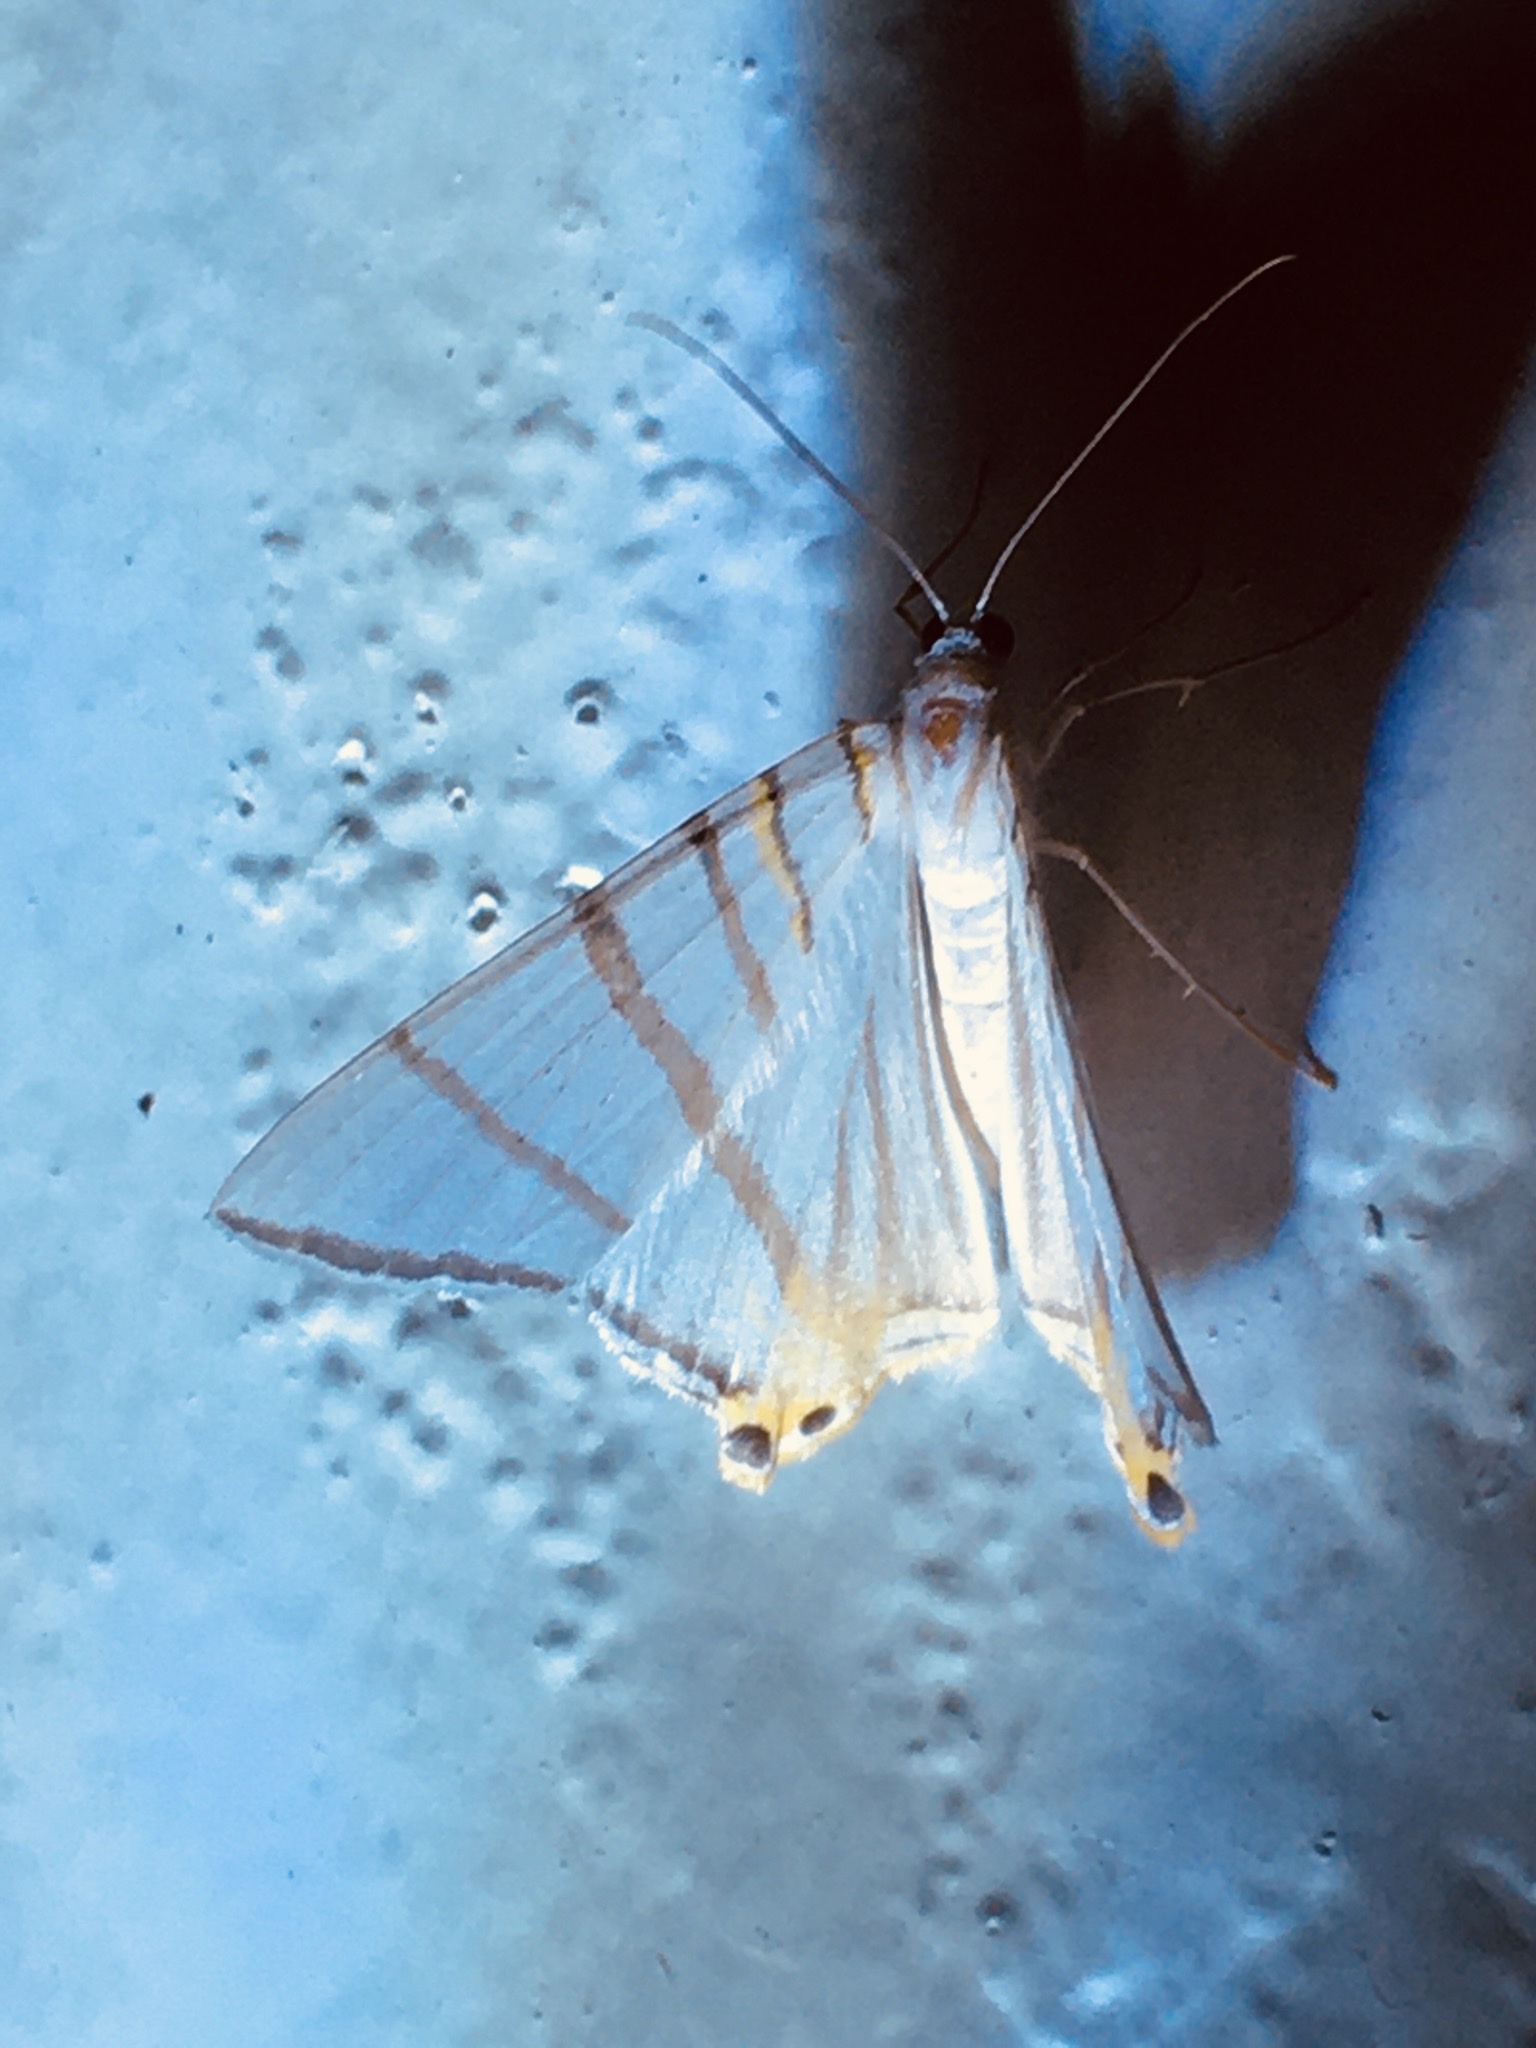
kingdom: Animalia
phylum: Arthropoda
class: Insecta
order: Lepidoptera
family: Geometridae
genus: Phrygionis
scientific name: Phrygionis platinata
